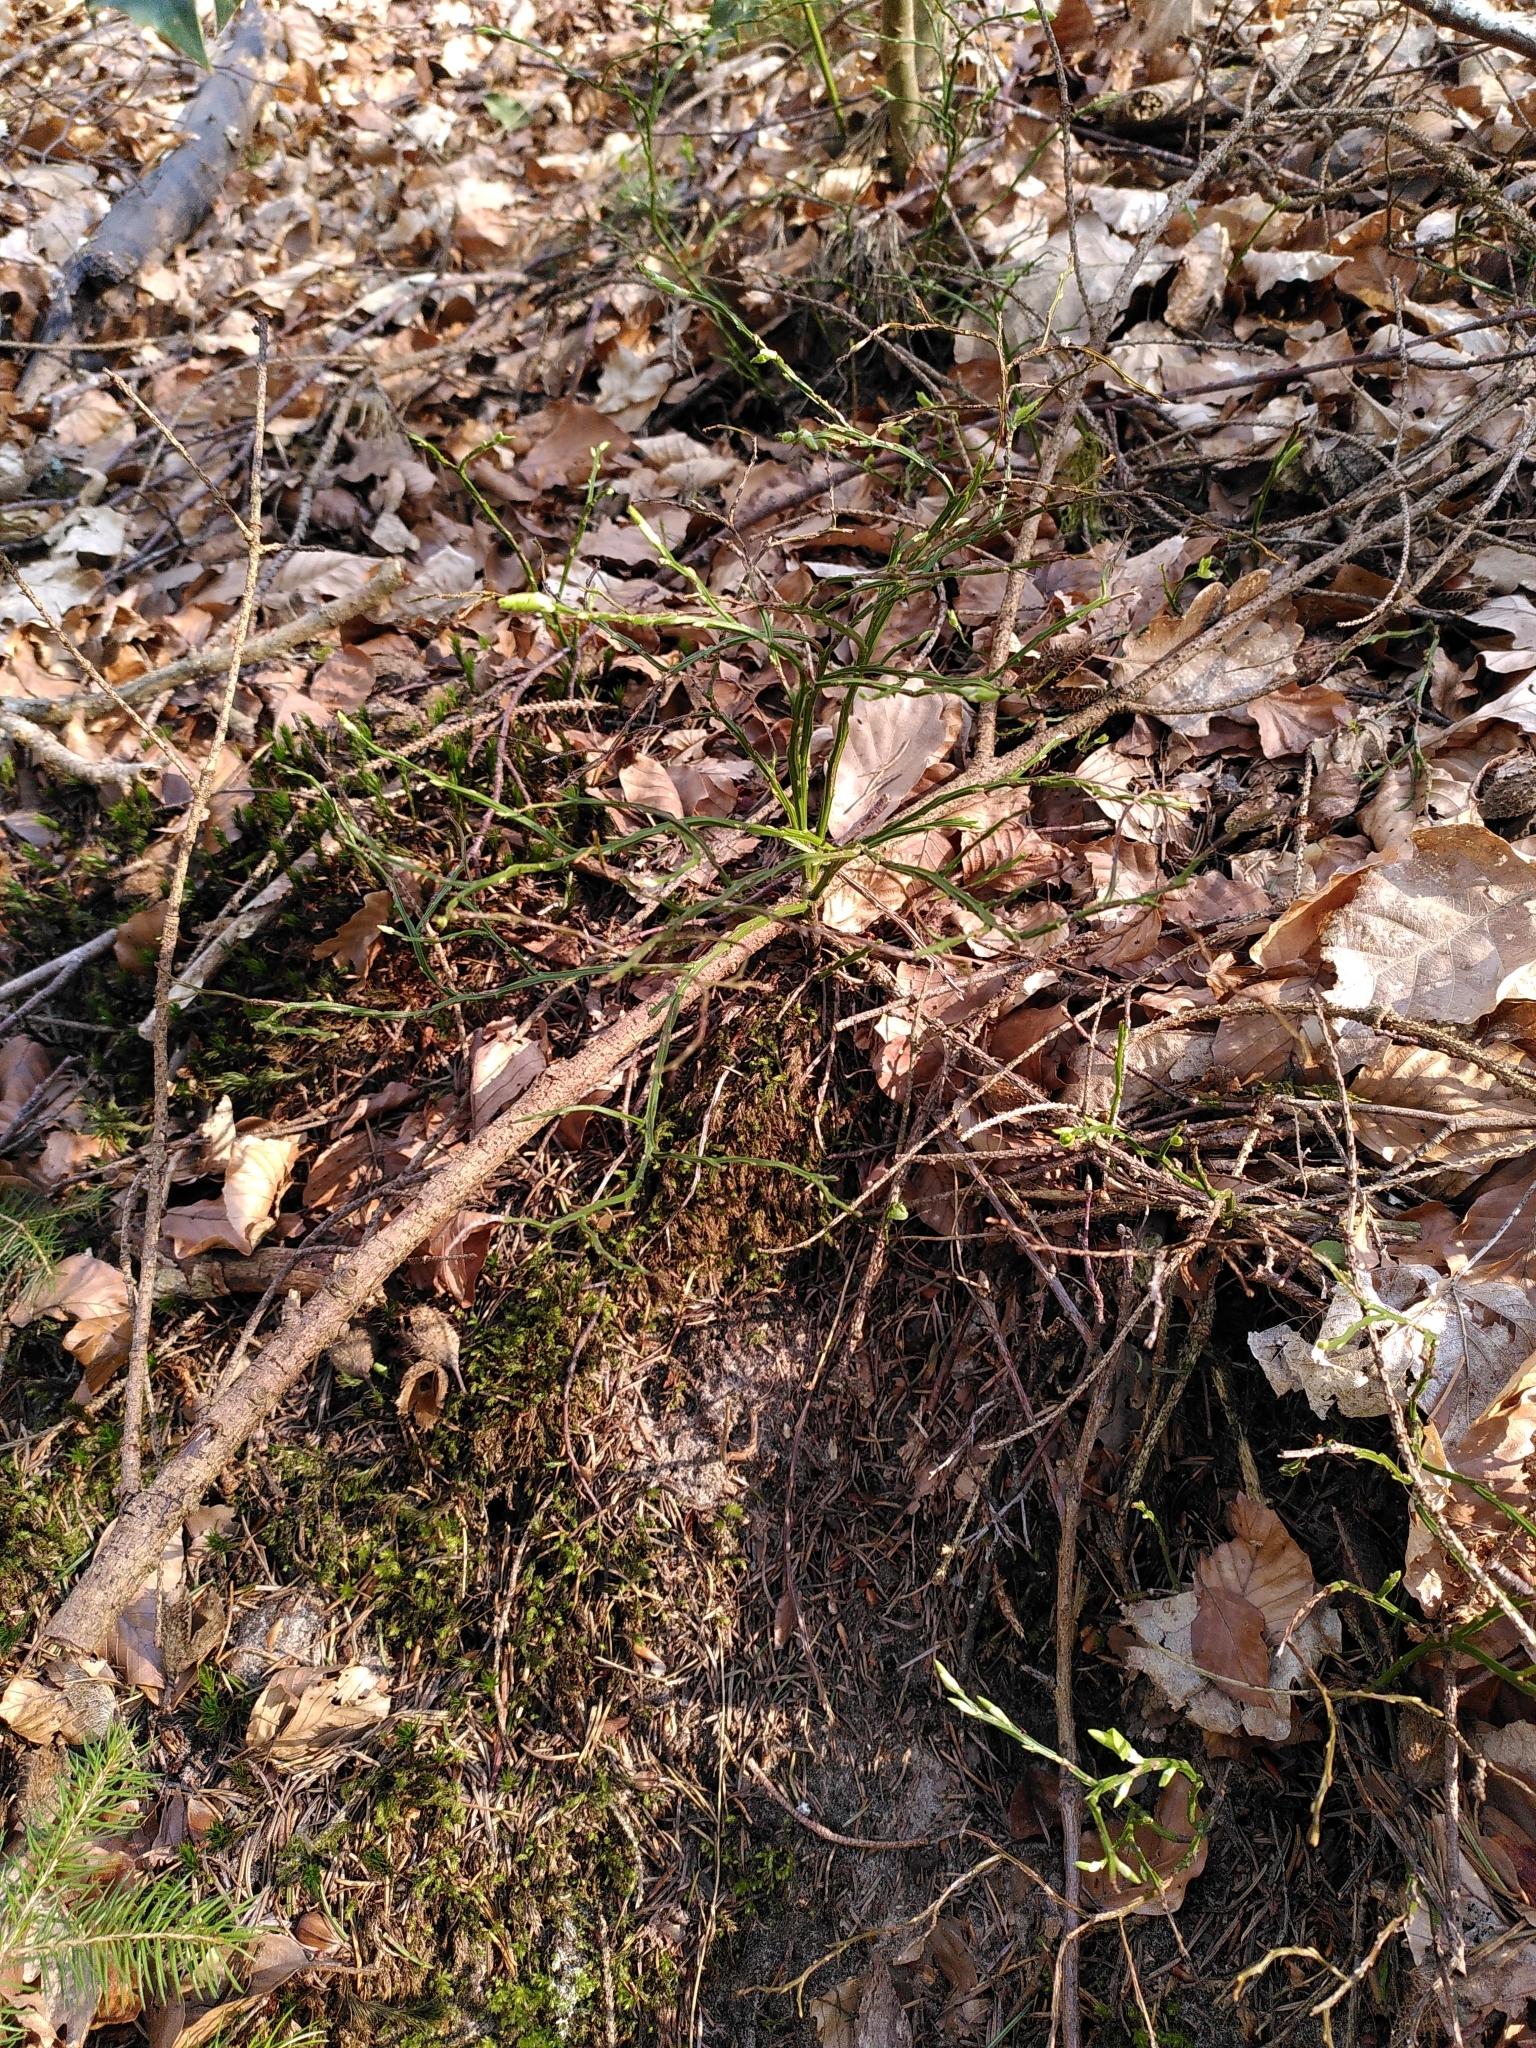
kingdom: Plantae
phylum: Tracheophyta
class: Magnoliopsida
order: Ericales
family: Ericaceae
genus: Vaccinium
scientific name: Vaccinium myrtillus
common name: Bilberry
